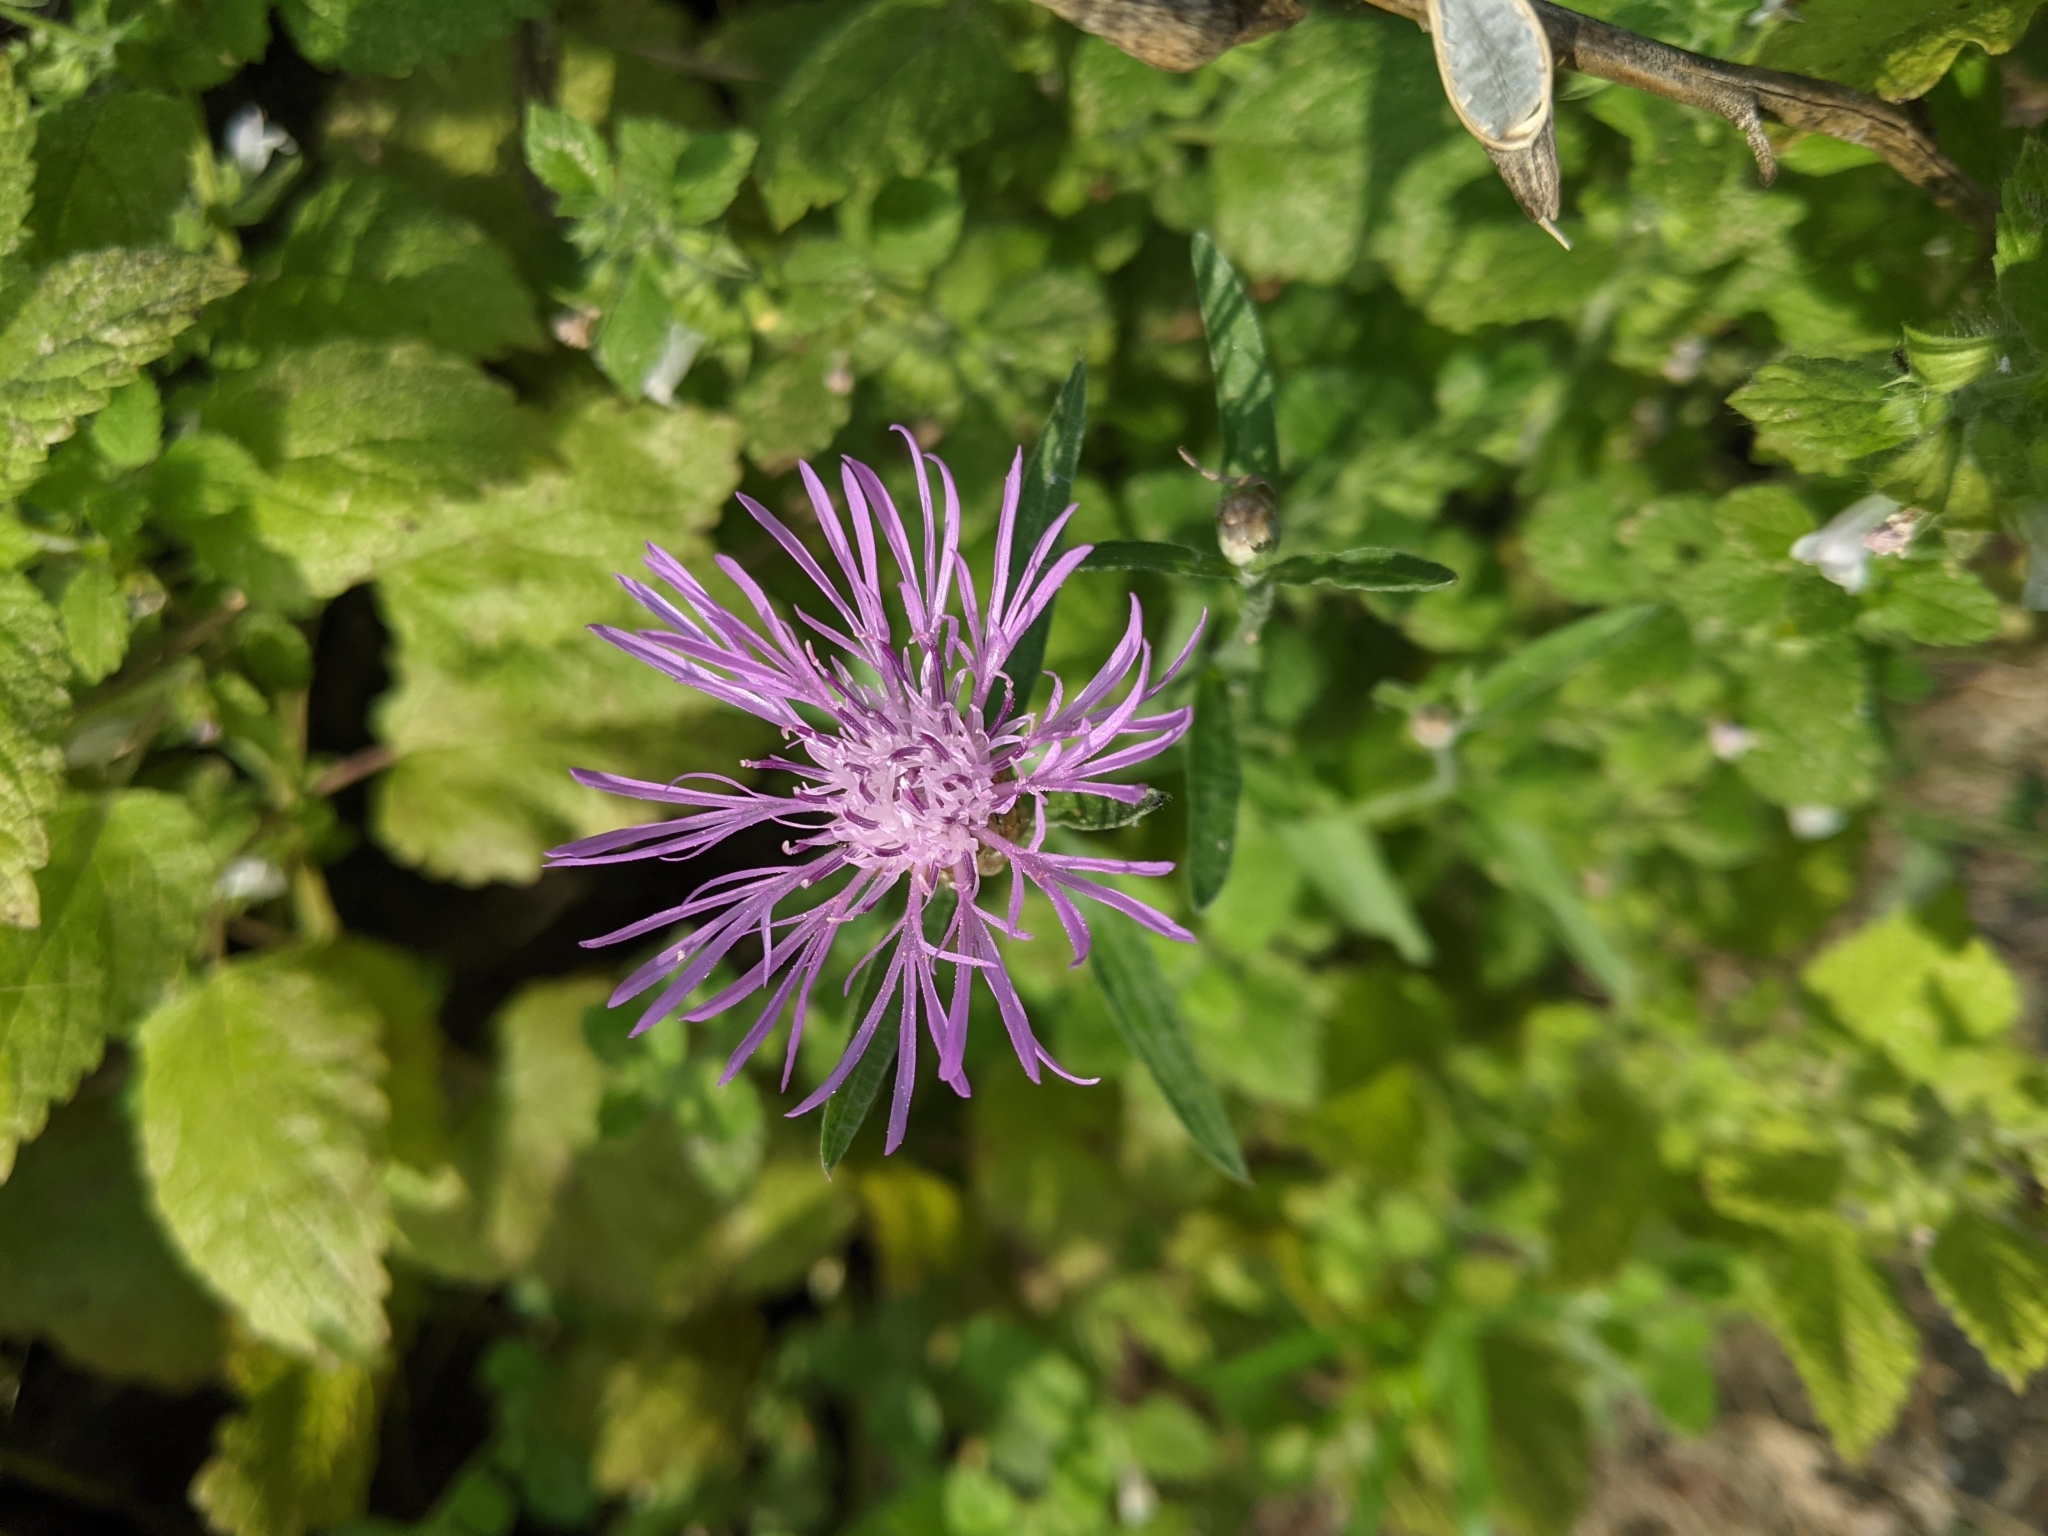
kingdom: Plantae
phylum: Tracheophyta
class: Magnoliopsida
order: Asterales
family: Asteraceae
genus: Centaurea
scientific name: Centaurea jacea
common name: Brown knapweed
